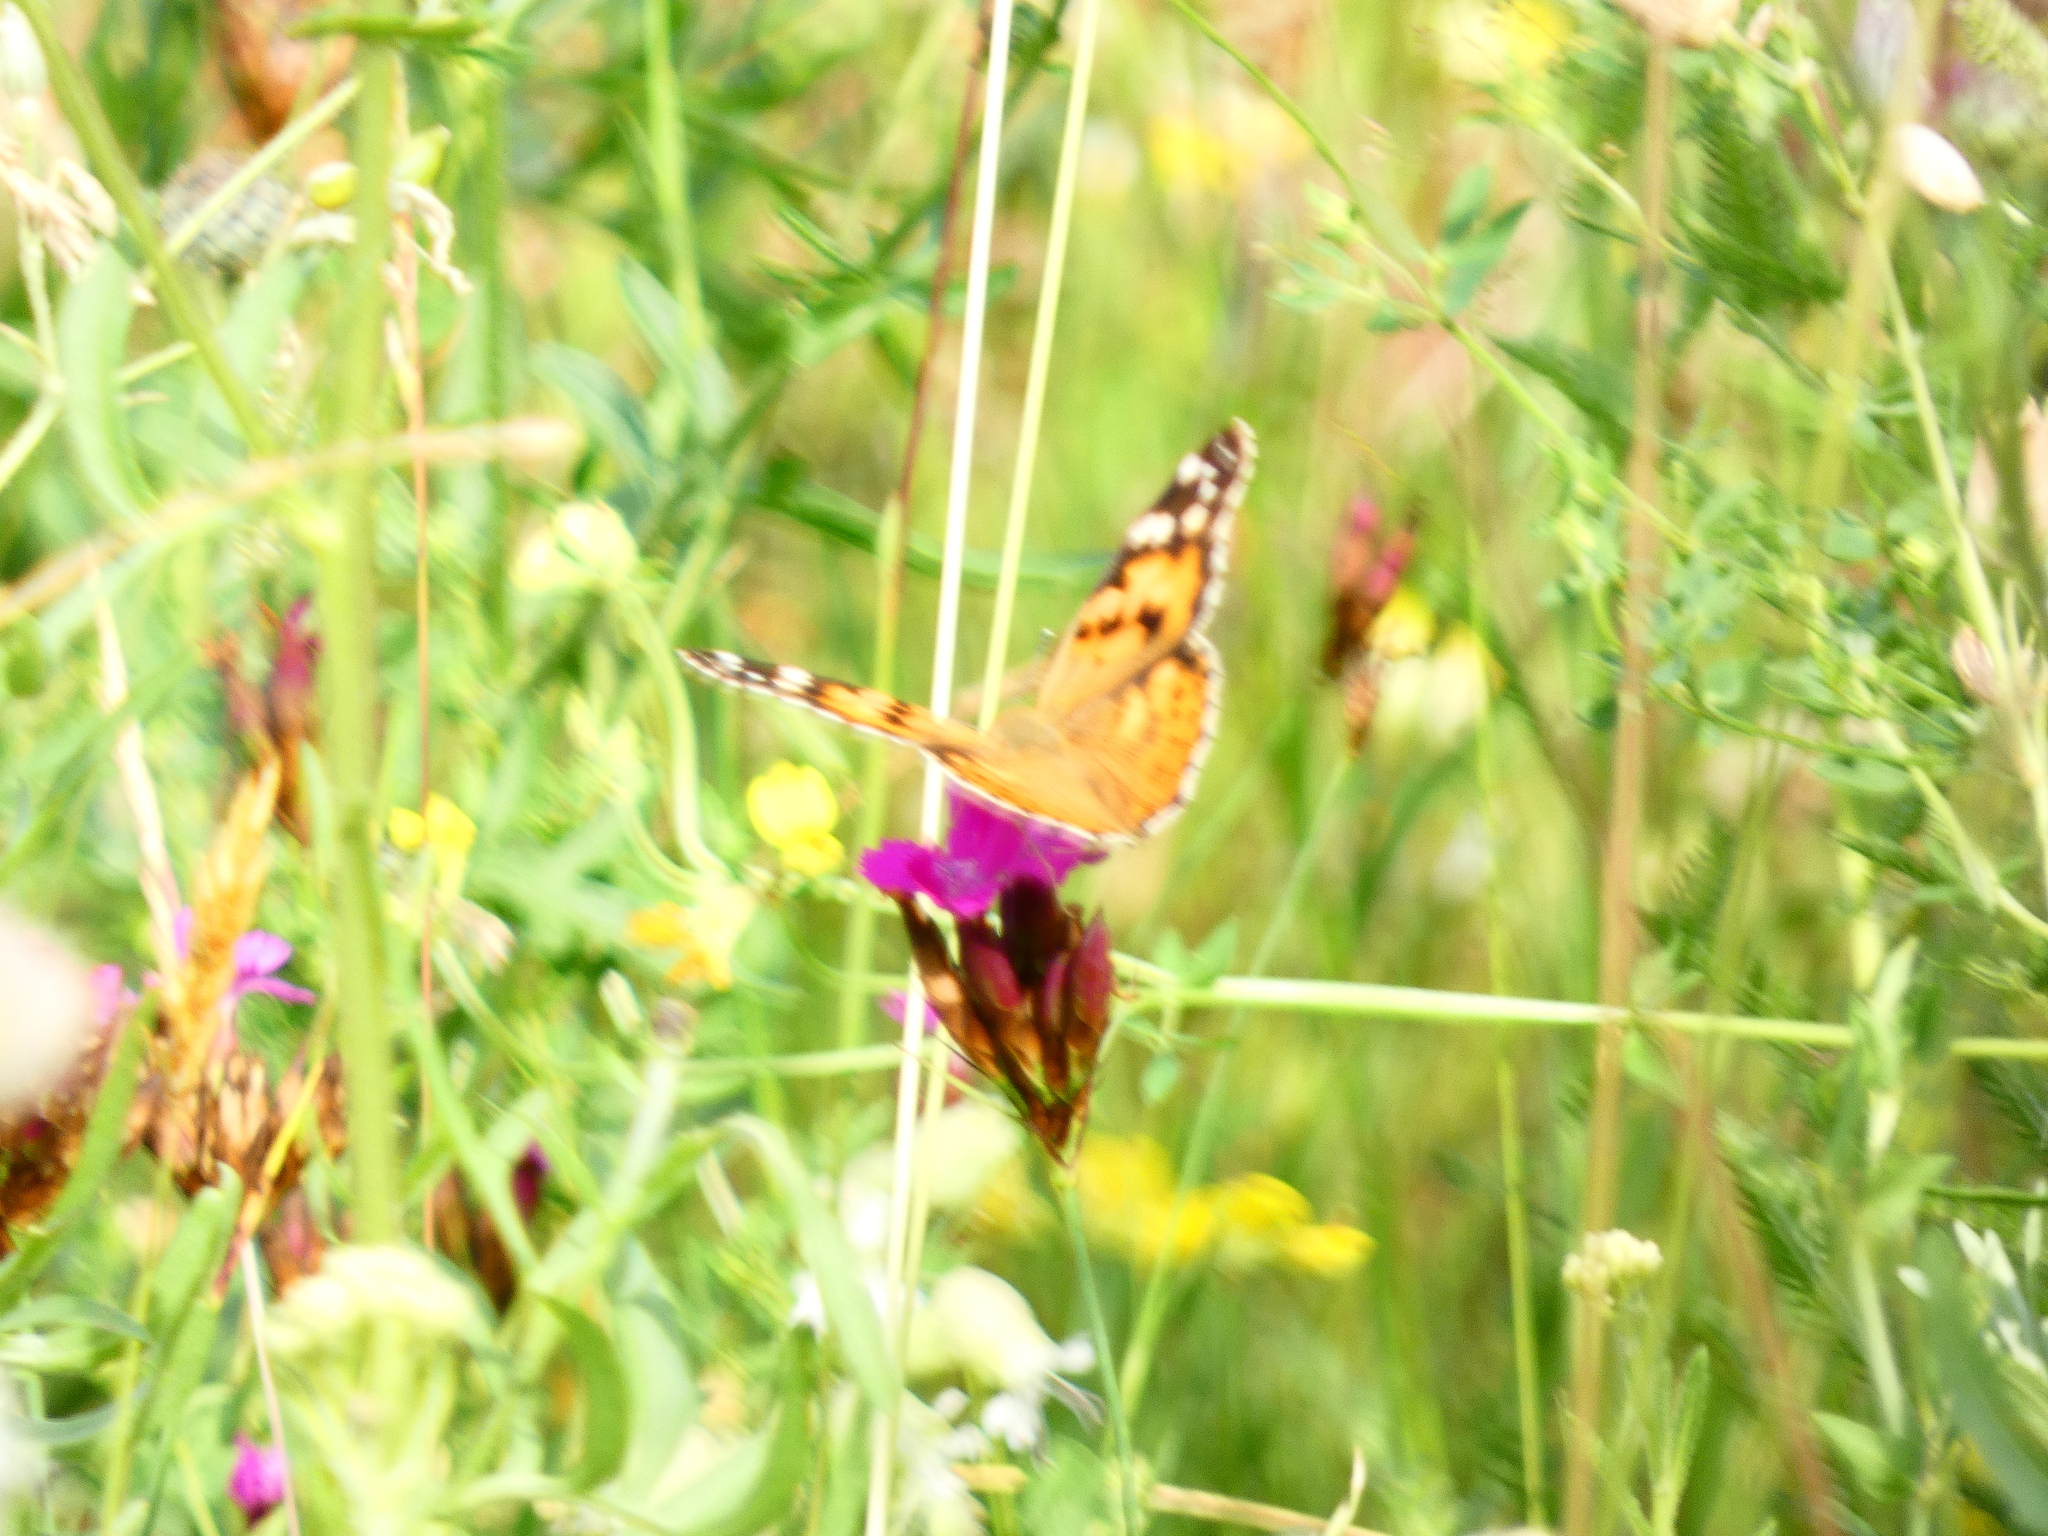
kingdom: Animalia
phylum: Arthropoda
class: Insecta
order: Lepidoptera
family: Nymphalidae
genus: Vanessa
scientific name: Vanessa cardui
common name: Painted lady
